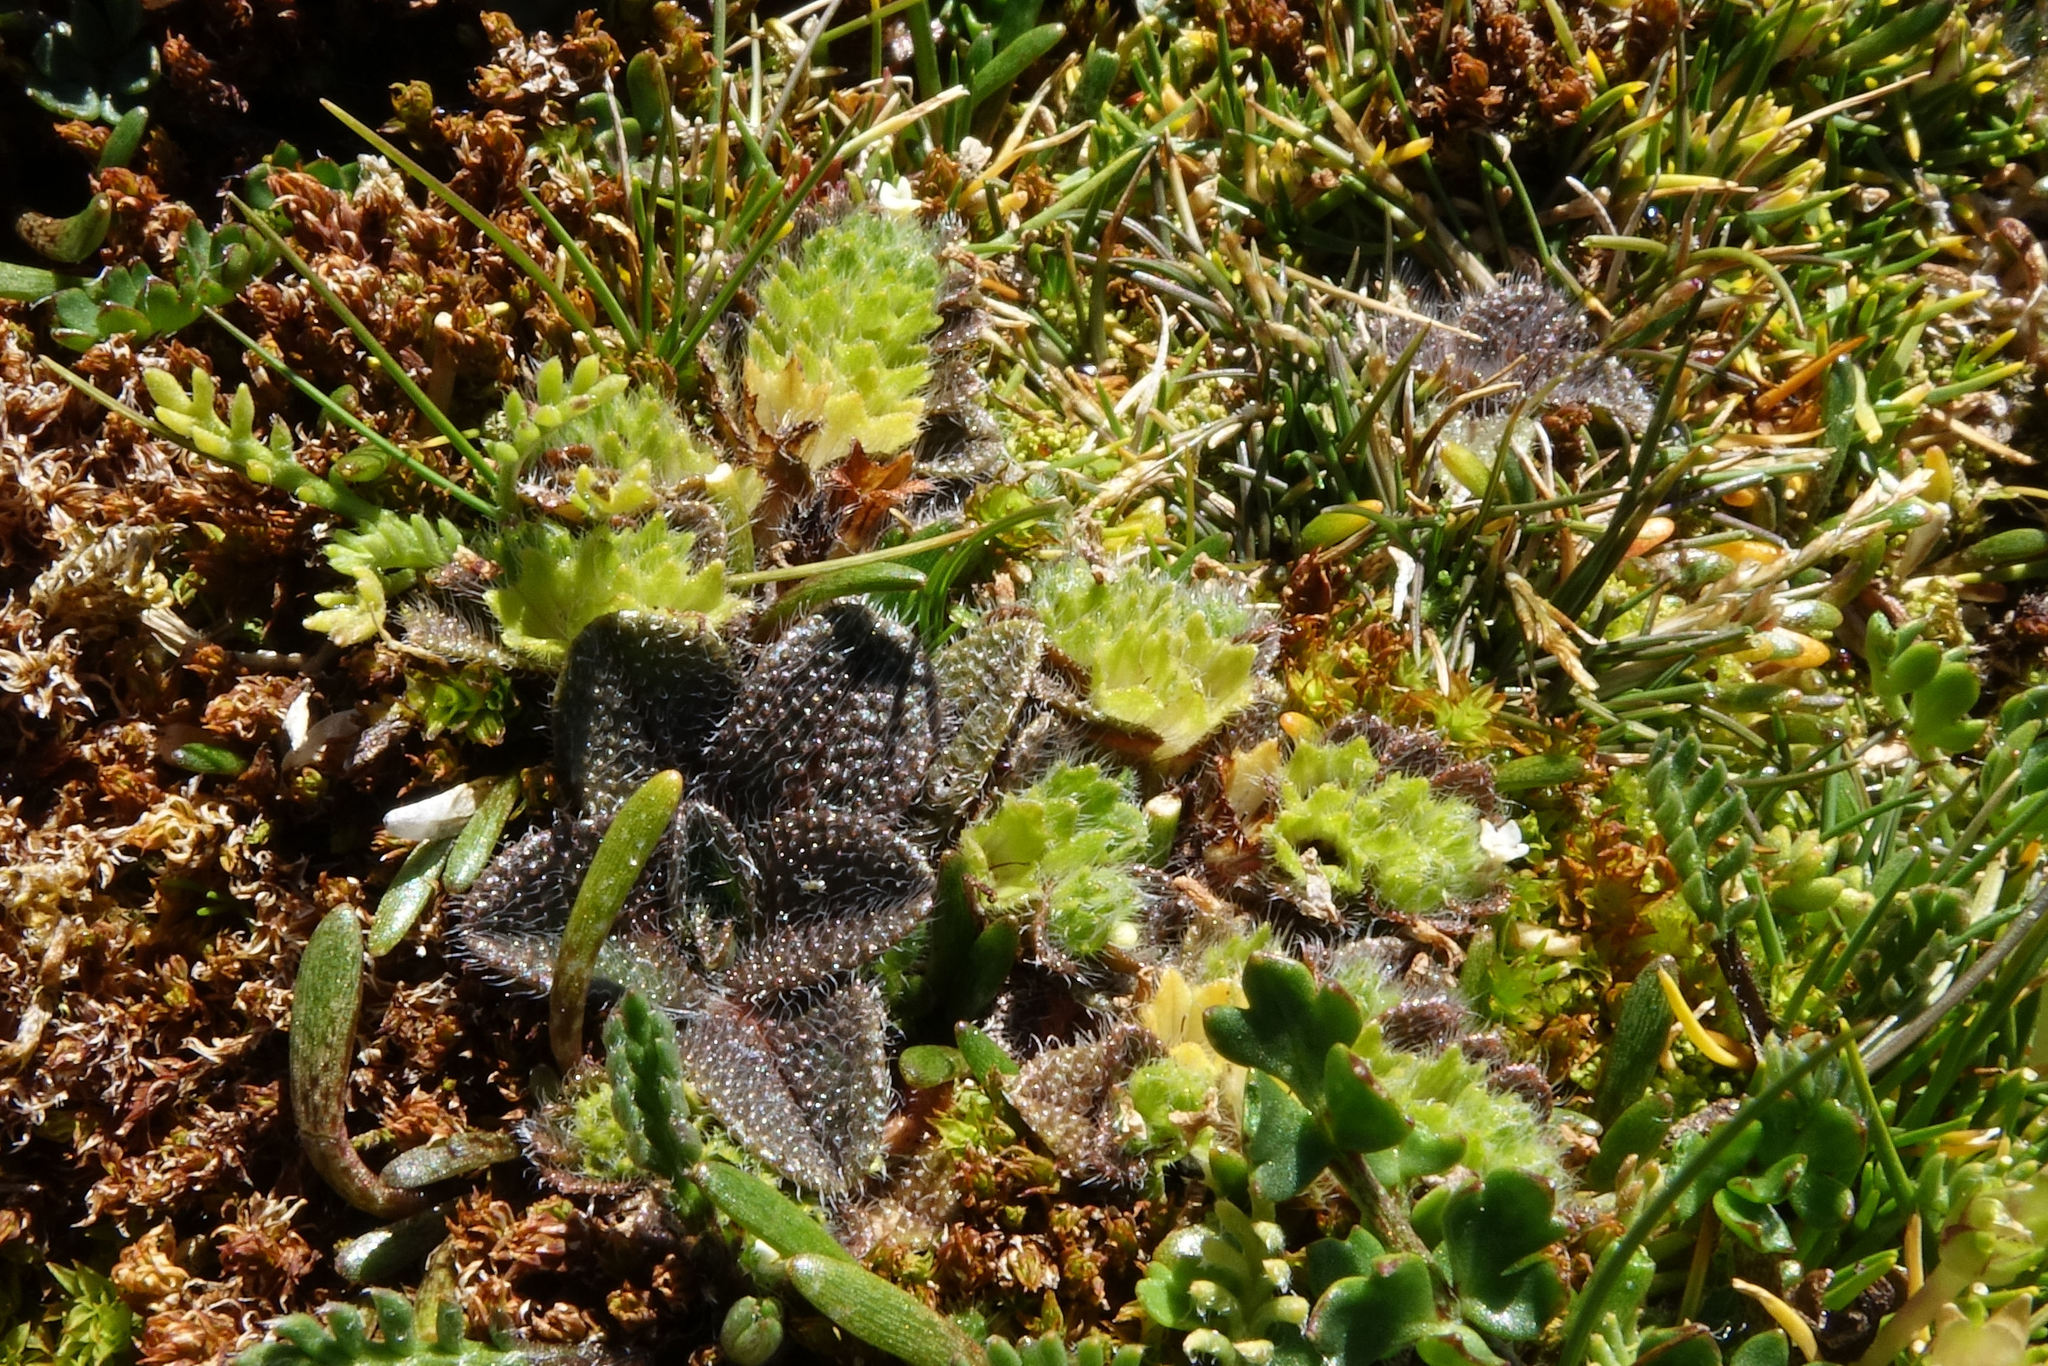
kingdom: Plantae
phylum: Tracheophyta
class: Magnoliopsida
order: Boraginales
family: Boraginaceae
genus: Myosotis
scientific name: Myosotis antarctica
